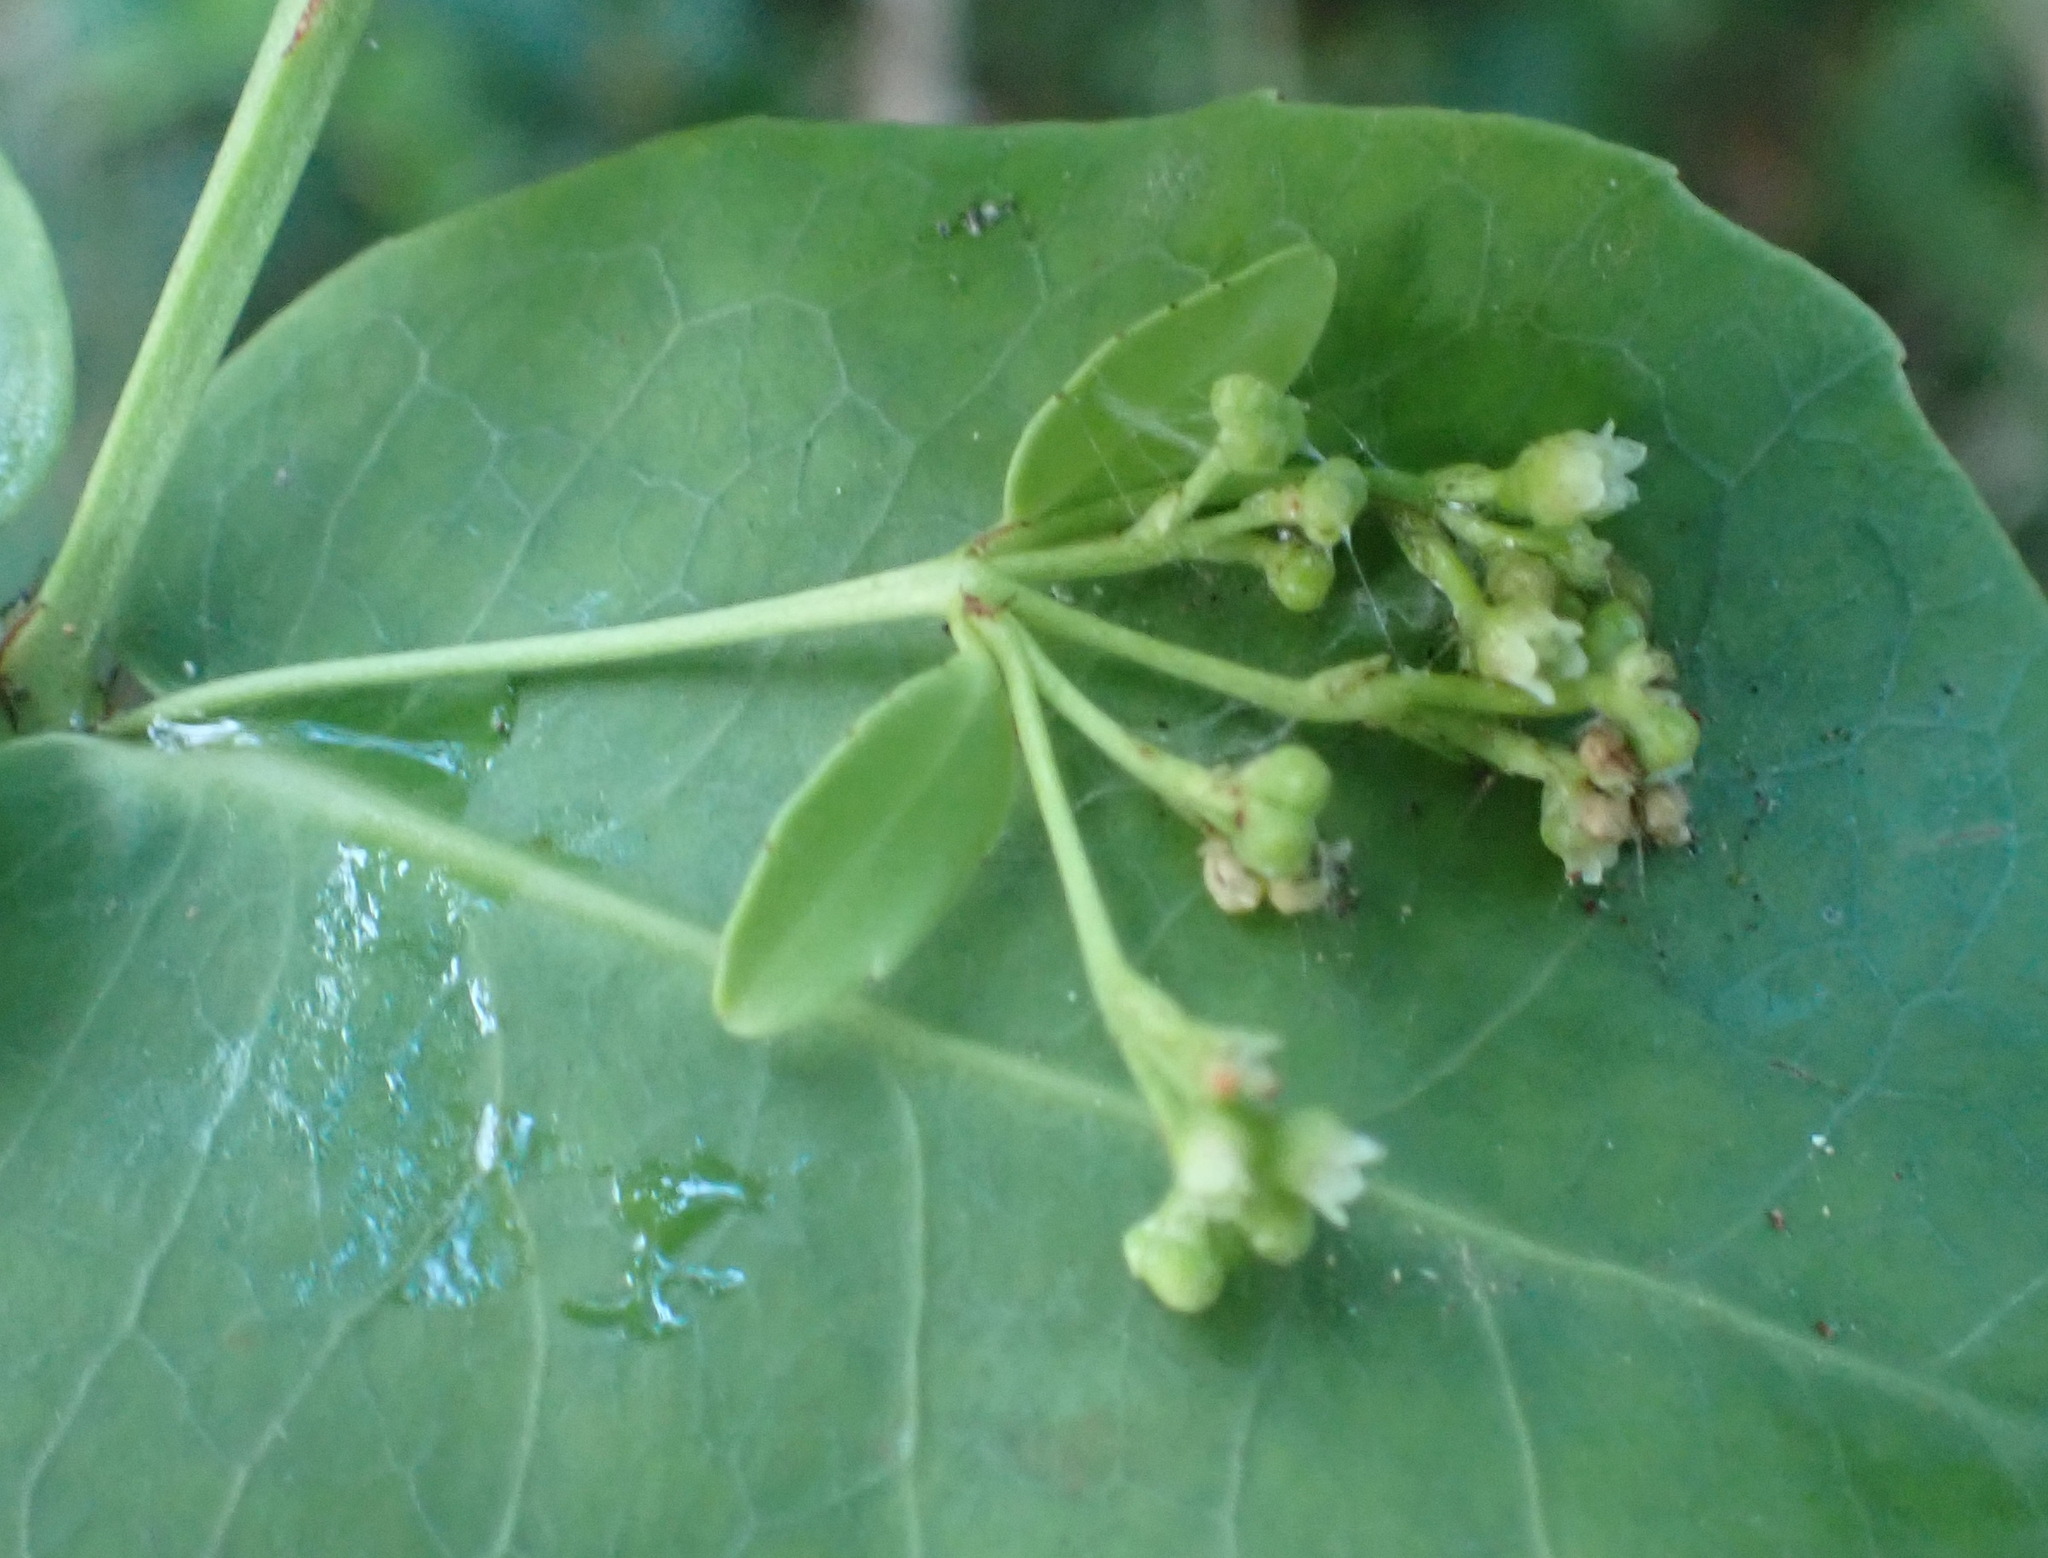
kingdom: Plantae
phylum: Tracheophyta
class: Magnoliopsida
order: Celastrales
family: Celastraceae
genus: Lauridia
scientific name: Lauridia tetragona
